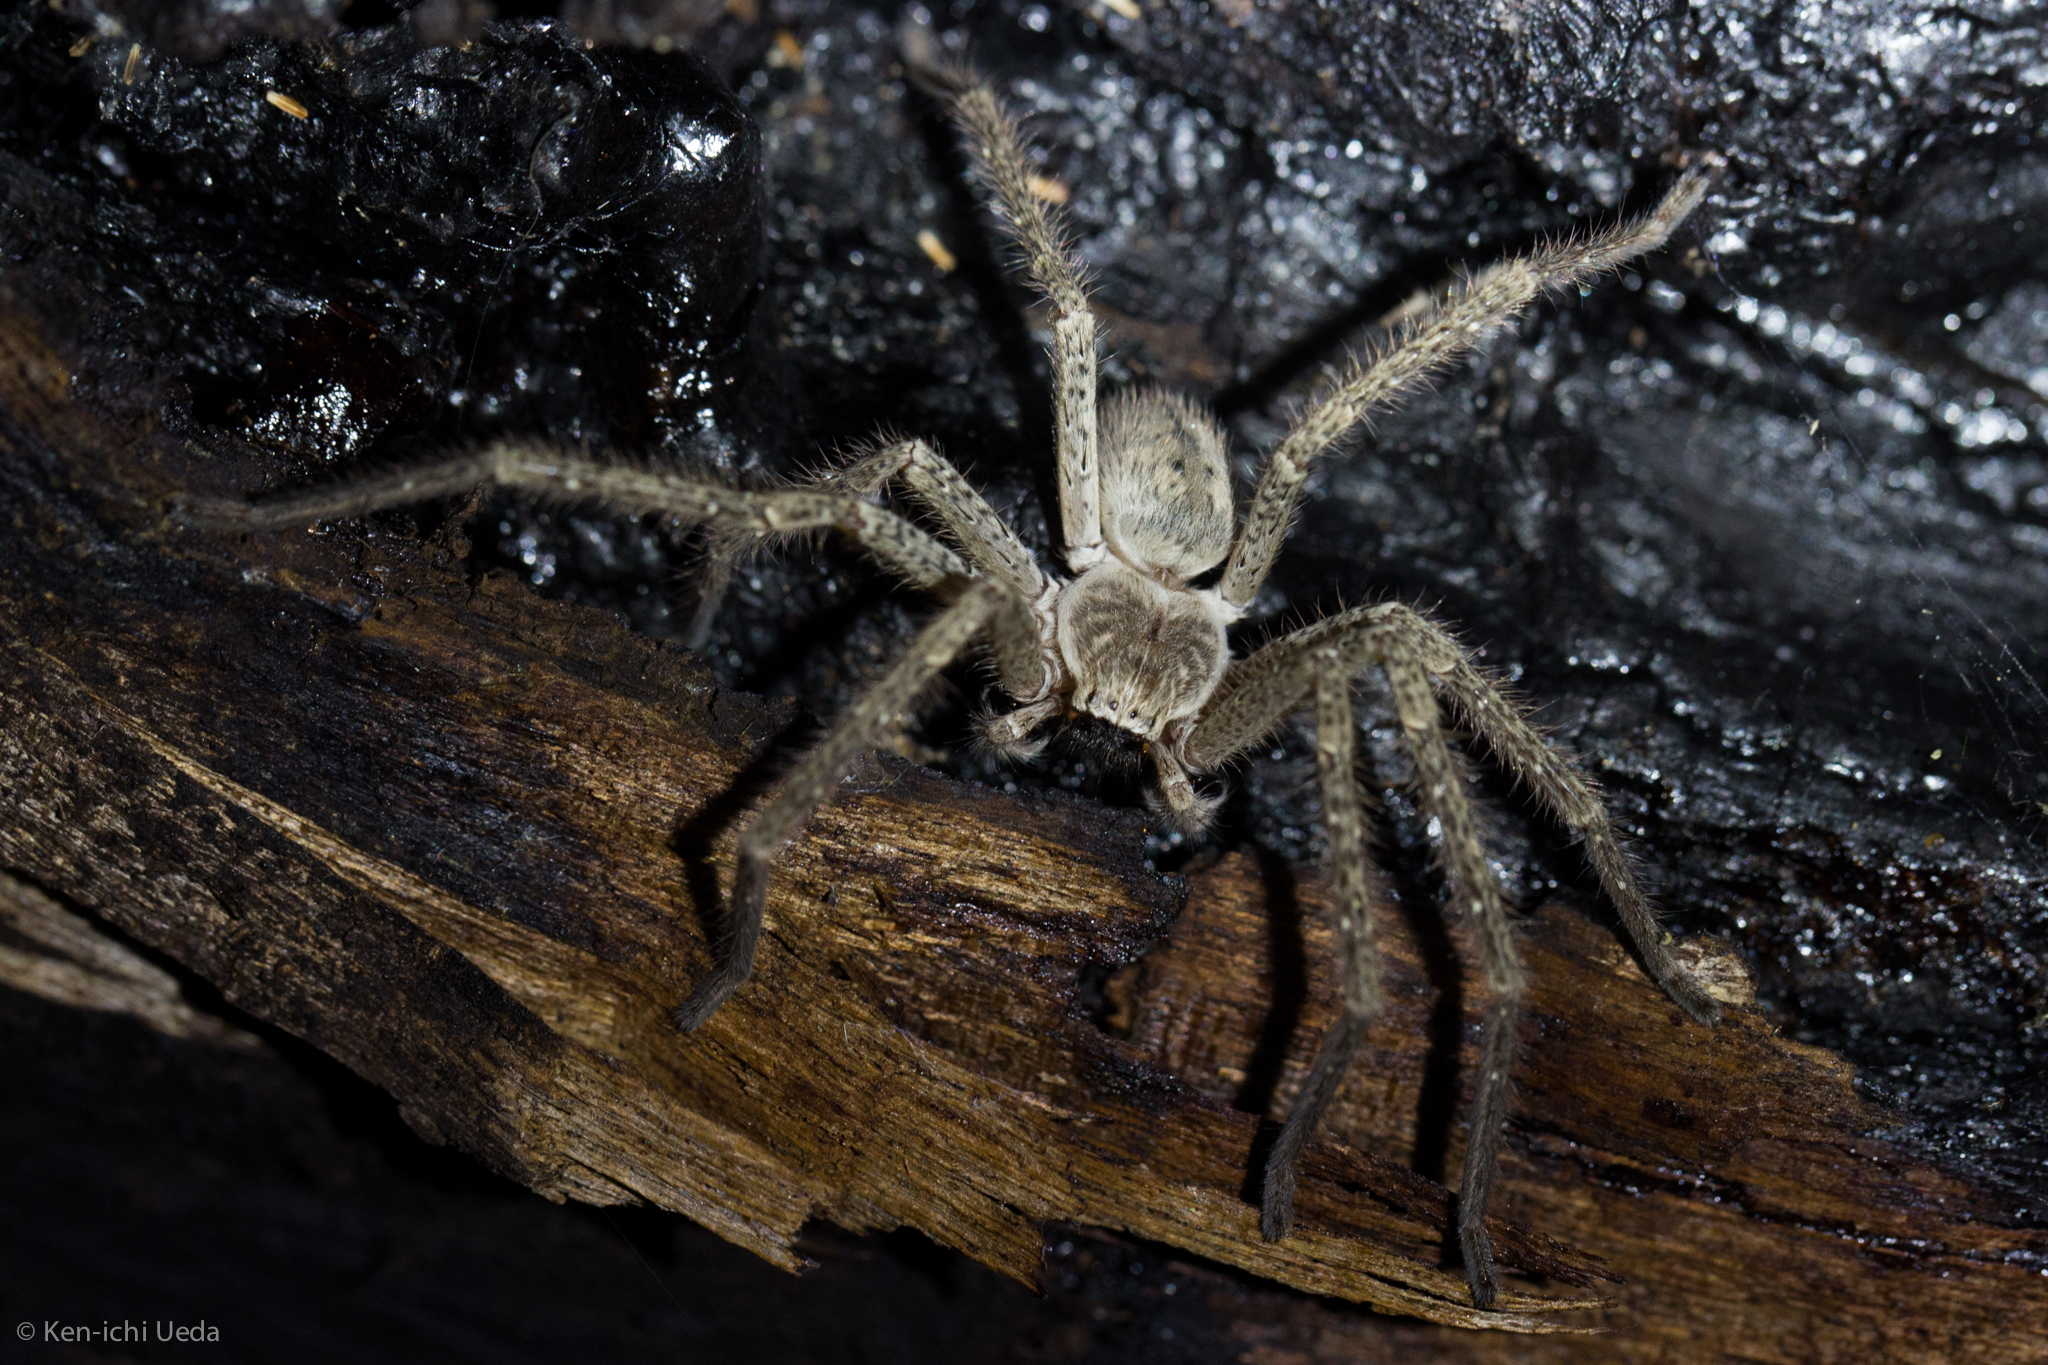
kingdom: Animalia
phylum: Arthropoda
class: Arachnida
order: Araneae
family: Sparassidae
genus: Olios
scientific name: Olios giganteus
